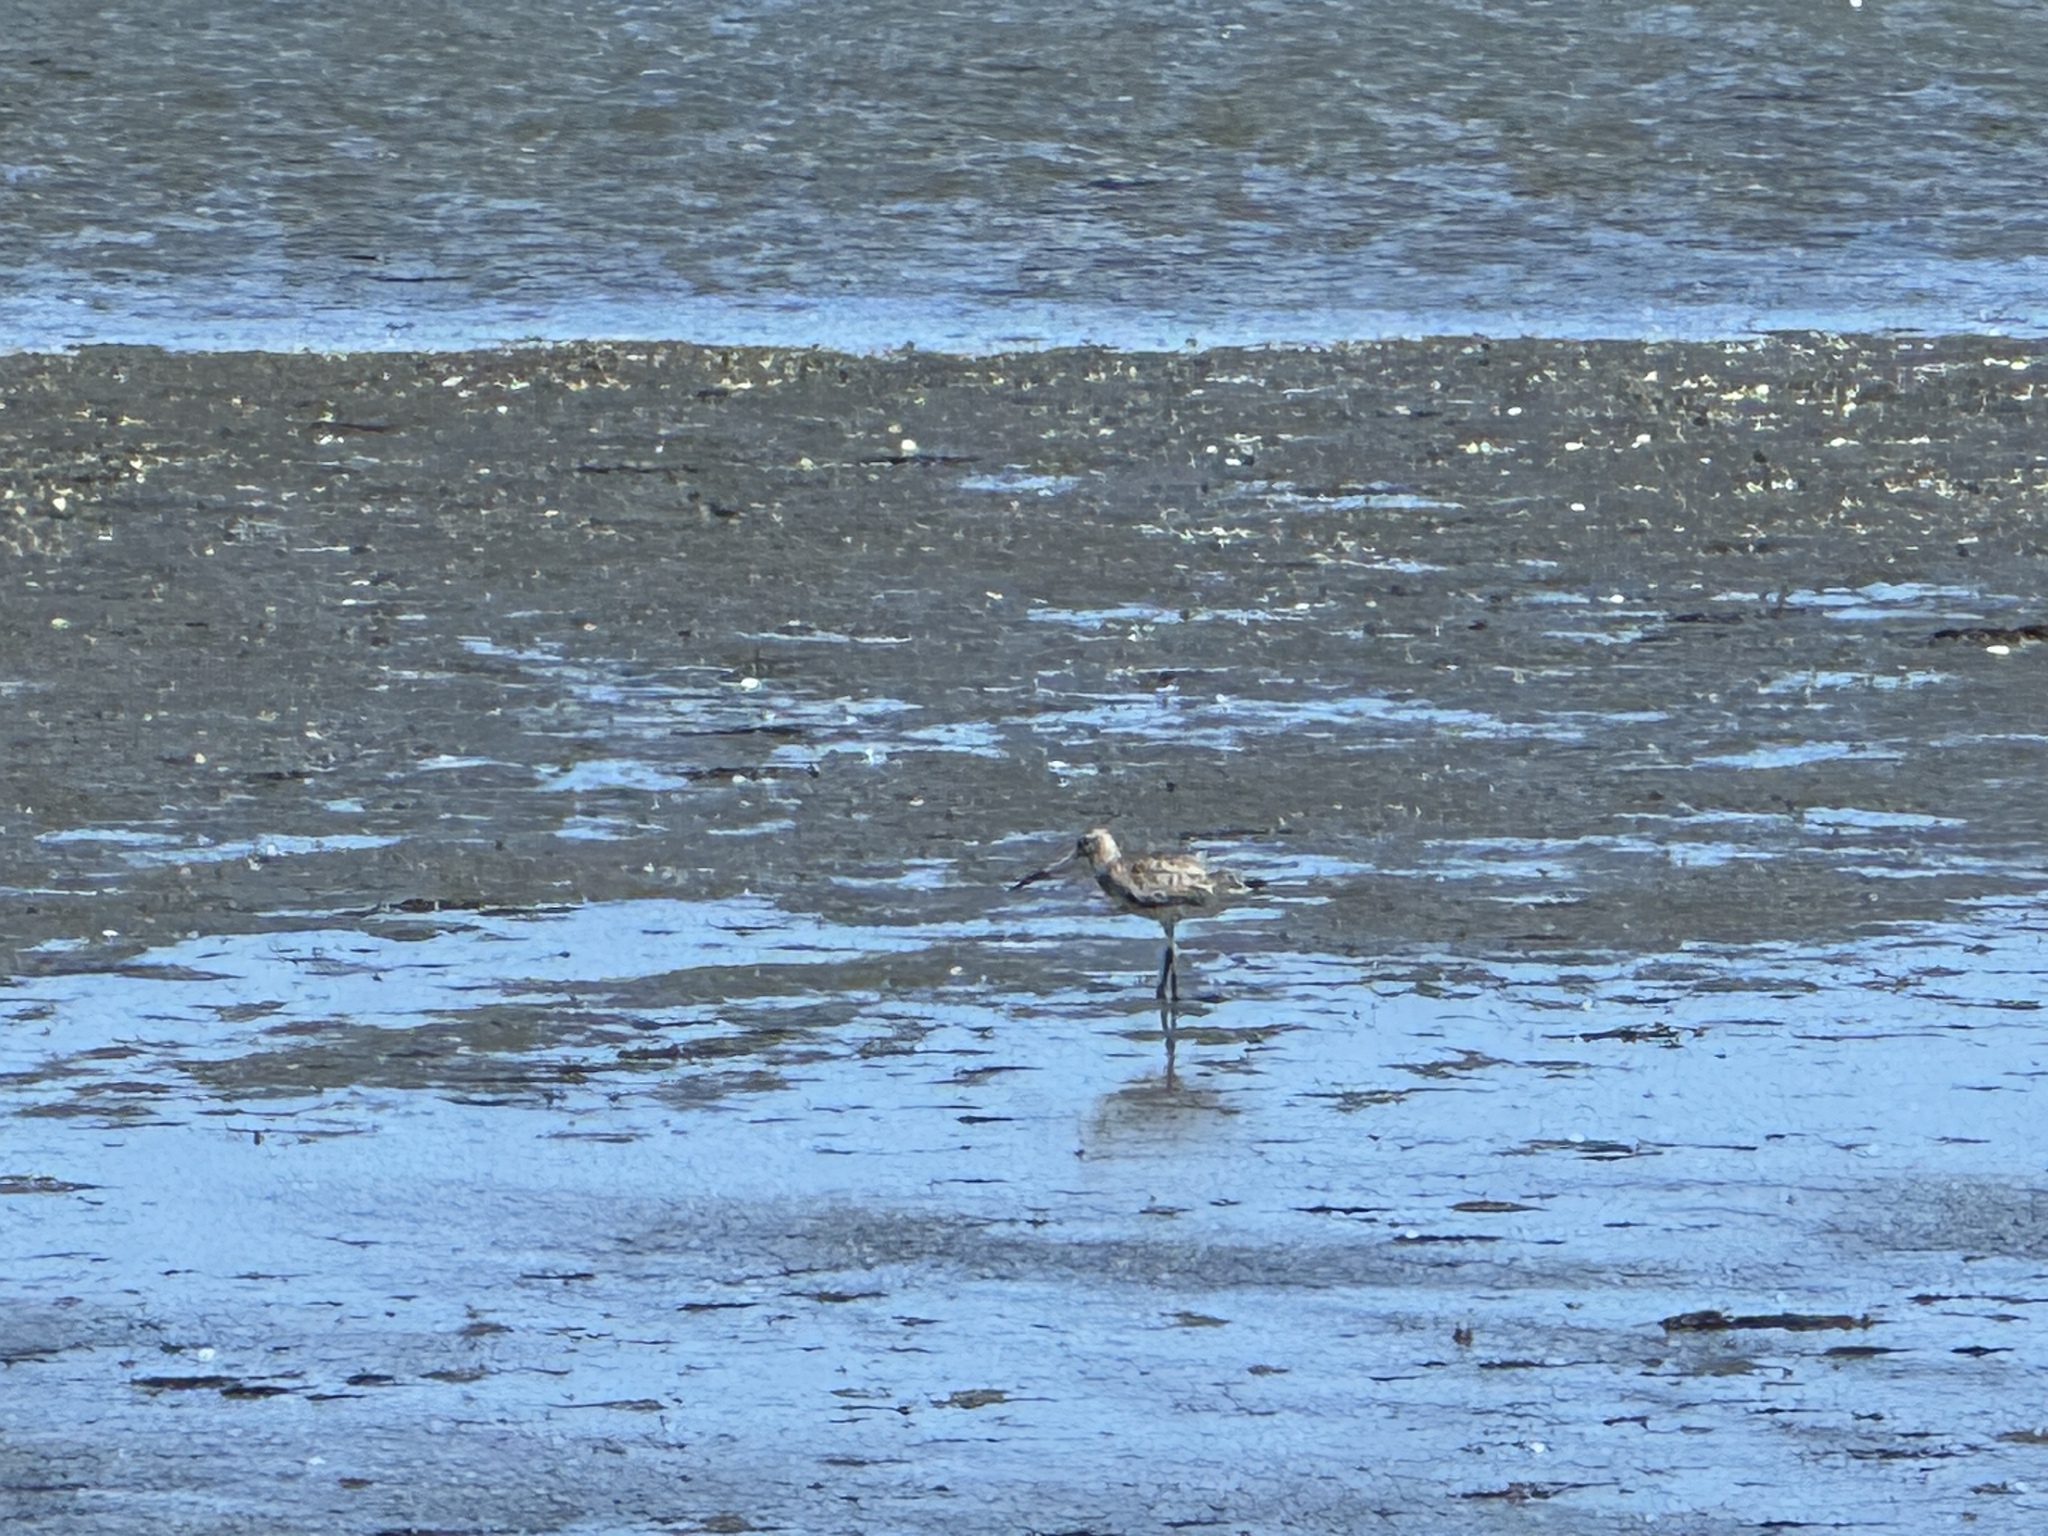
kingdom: Animalia
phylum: Chordata
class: Aves
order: Charadriiformes
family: Scolopacidae
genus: Limosa
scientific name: Limosa lapponica
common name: Bar-tailed godwit
